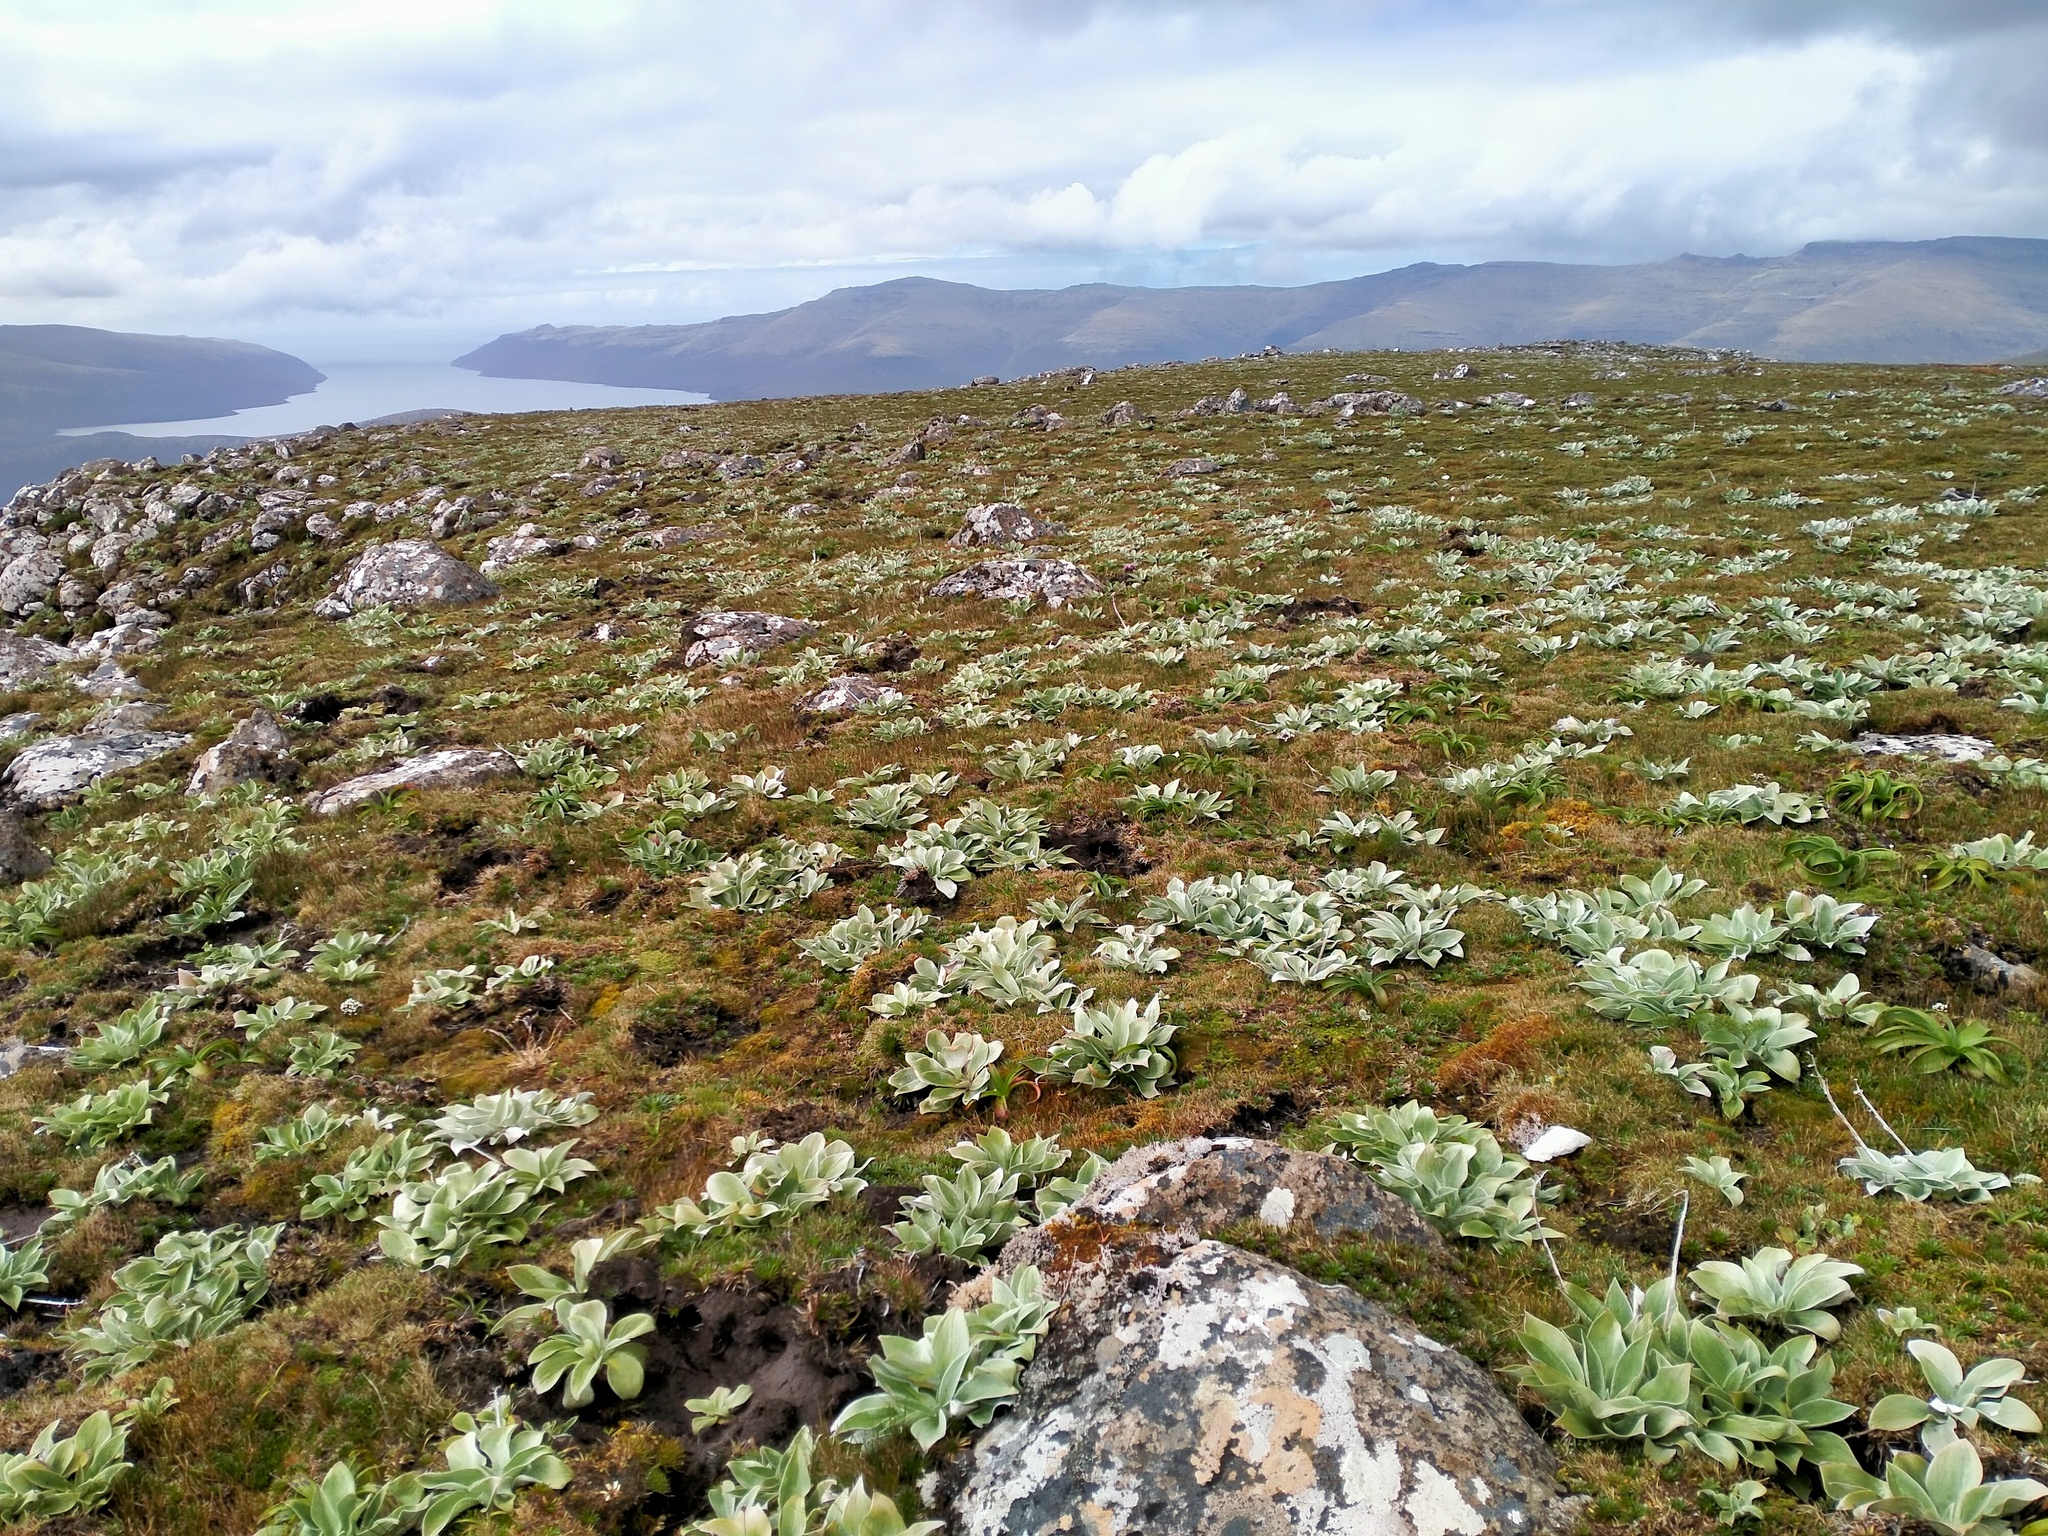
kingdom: Plantae
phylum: Tracheophyta
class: Magnoliopsida
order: Asterales
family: Asteraceae
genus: Pleurophyllum
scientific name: Pleurophyllum hookeri
